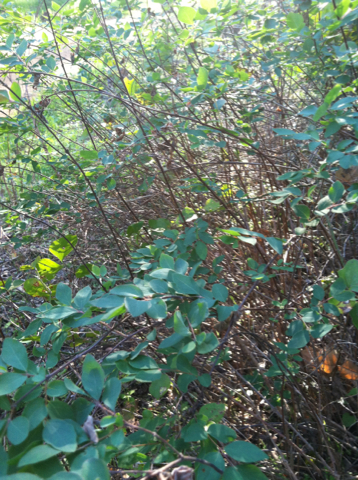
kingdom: Plantae
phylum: Tracheophyta
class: Magnoliopsida
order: Dipsacales
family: Caprifoliaceae
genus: Symphoricarpos
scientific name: Symphoricarpos orbiculatus
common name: Coralberry
